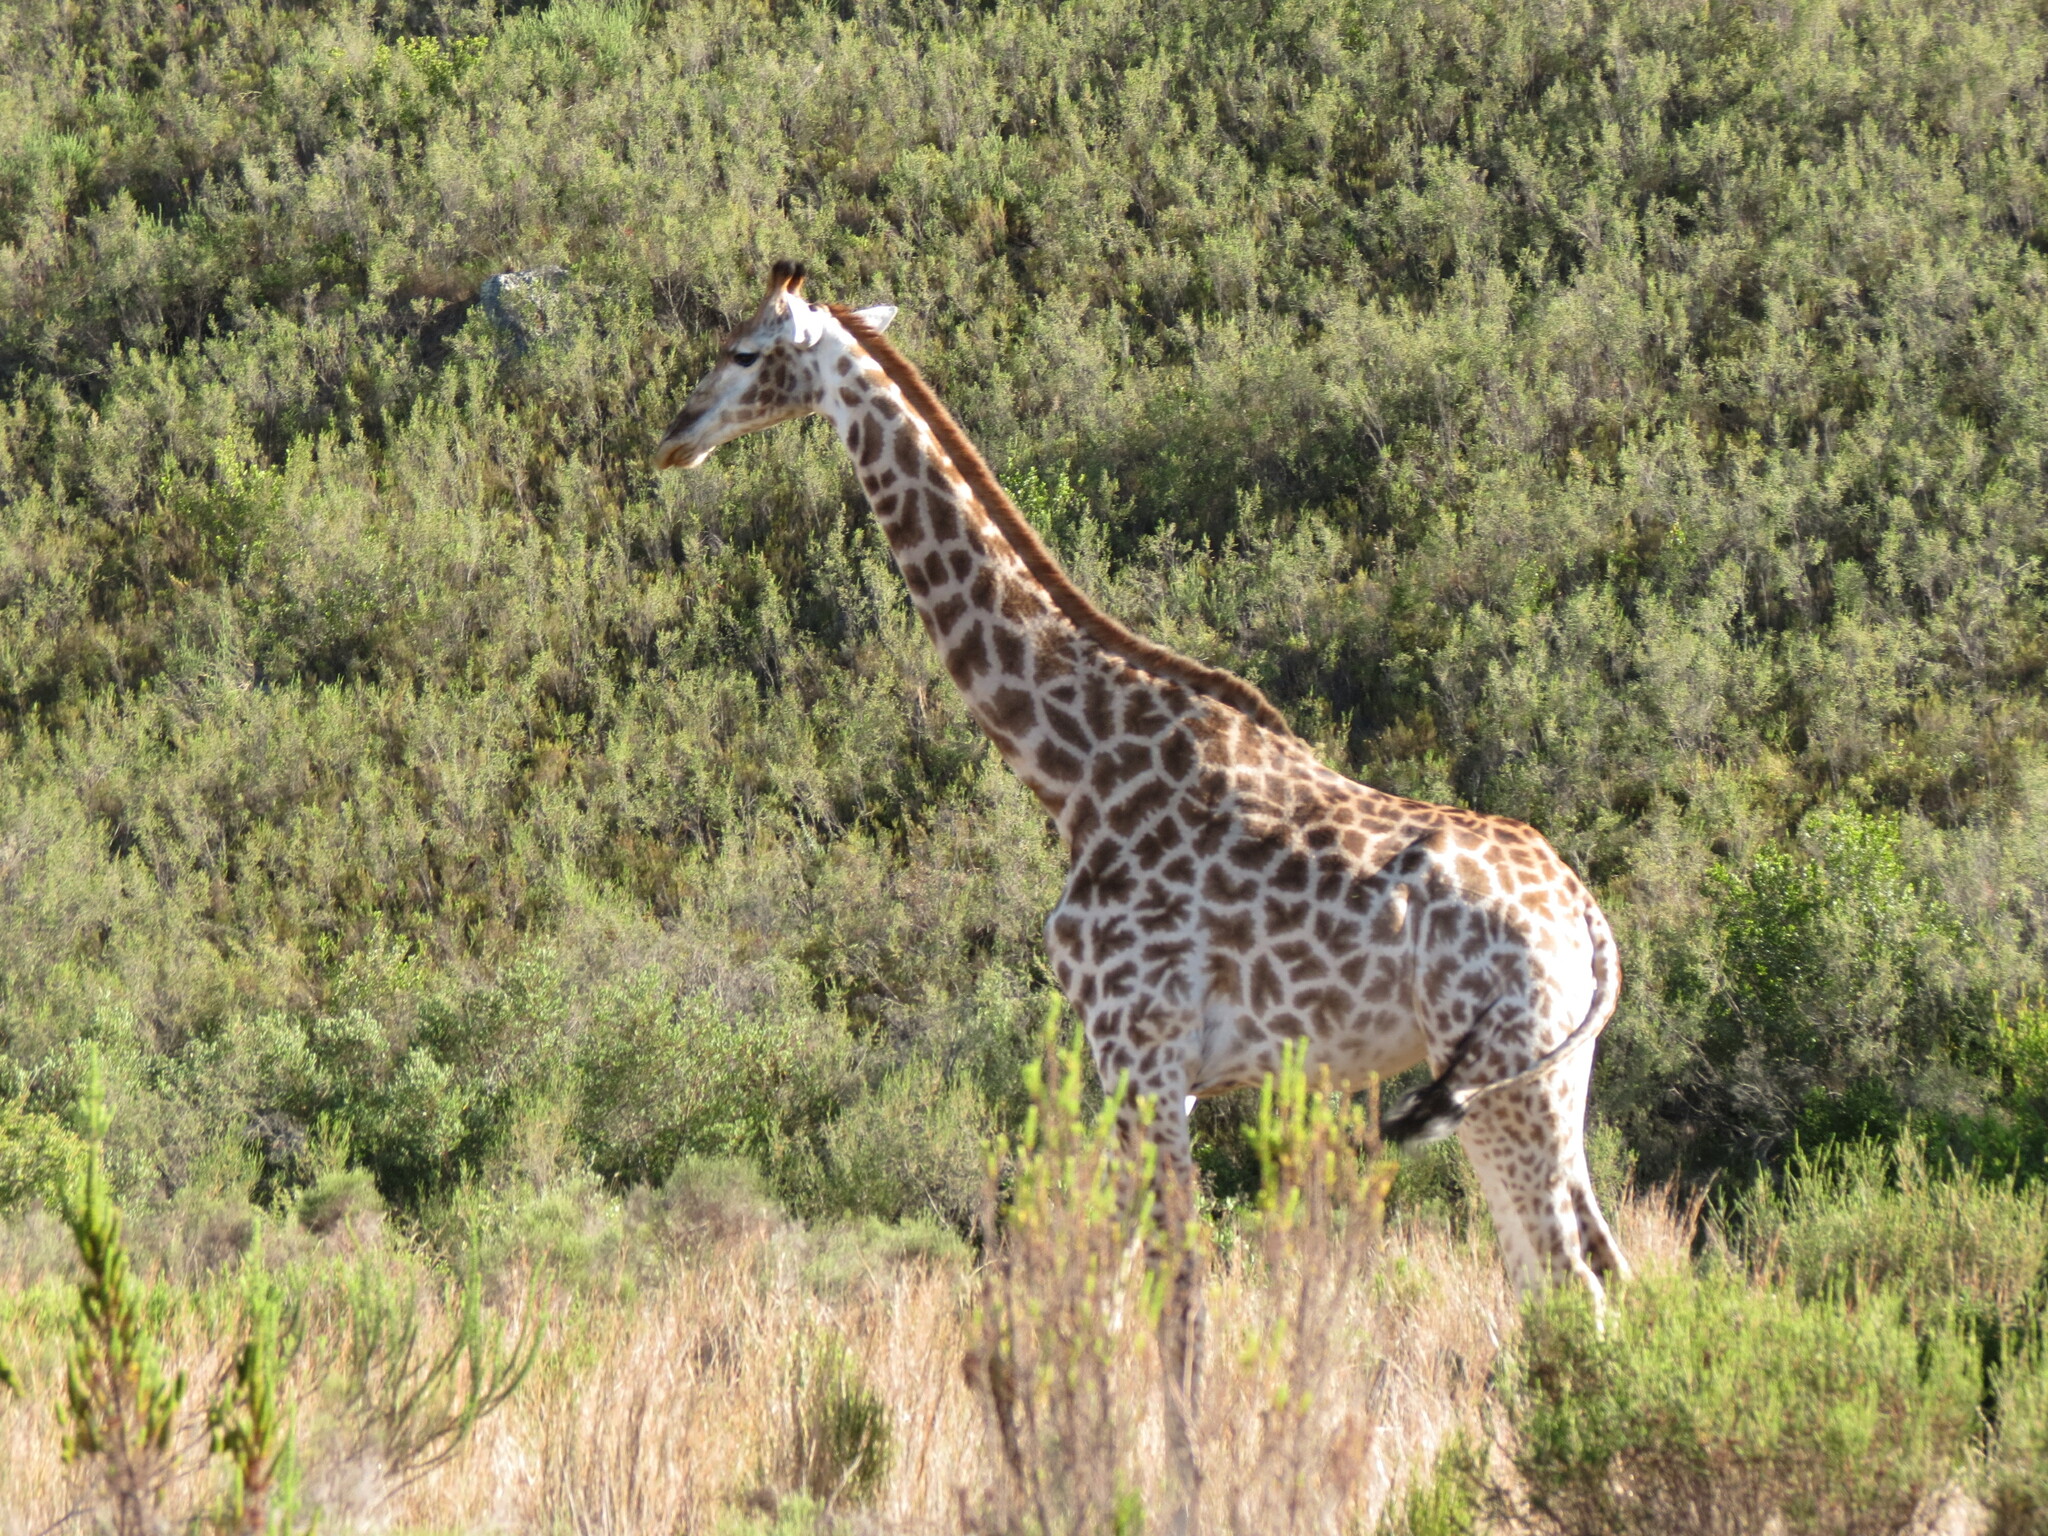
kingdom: Animalia
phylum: Chordata
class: Mammalia
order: Artiodactyla
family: Giraffidae
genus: Giraffa
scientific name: Giraffa giraffa
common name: Southern giraffe
